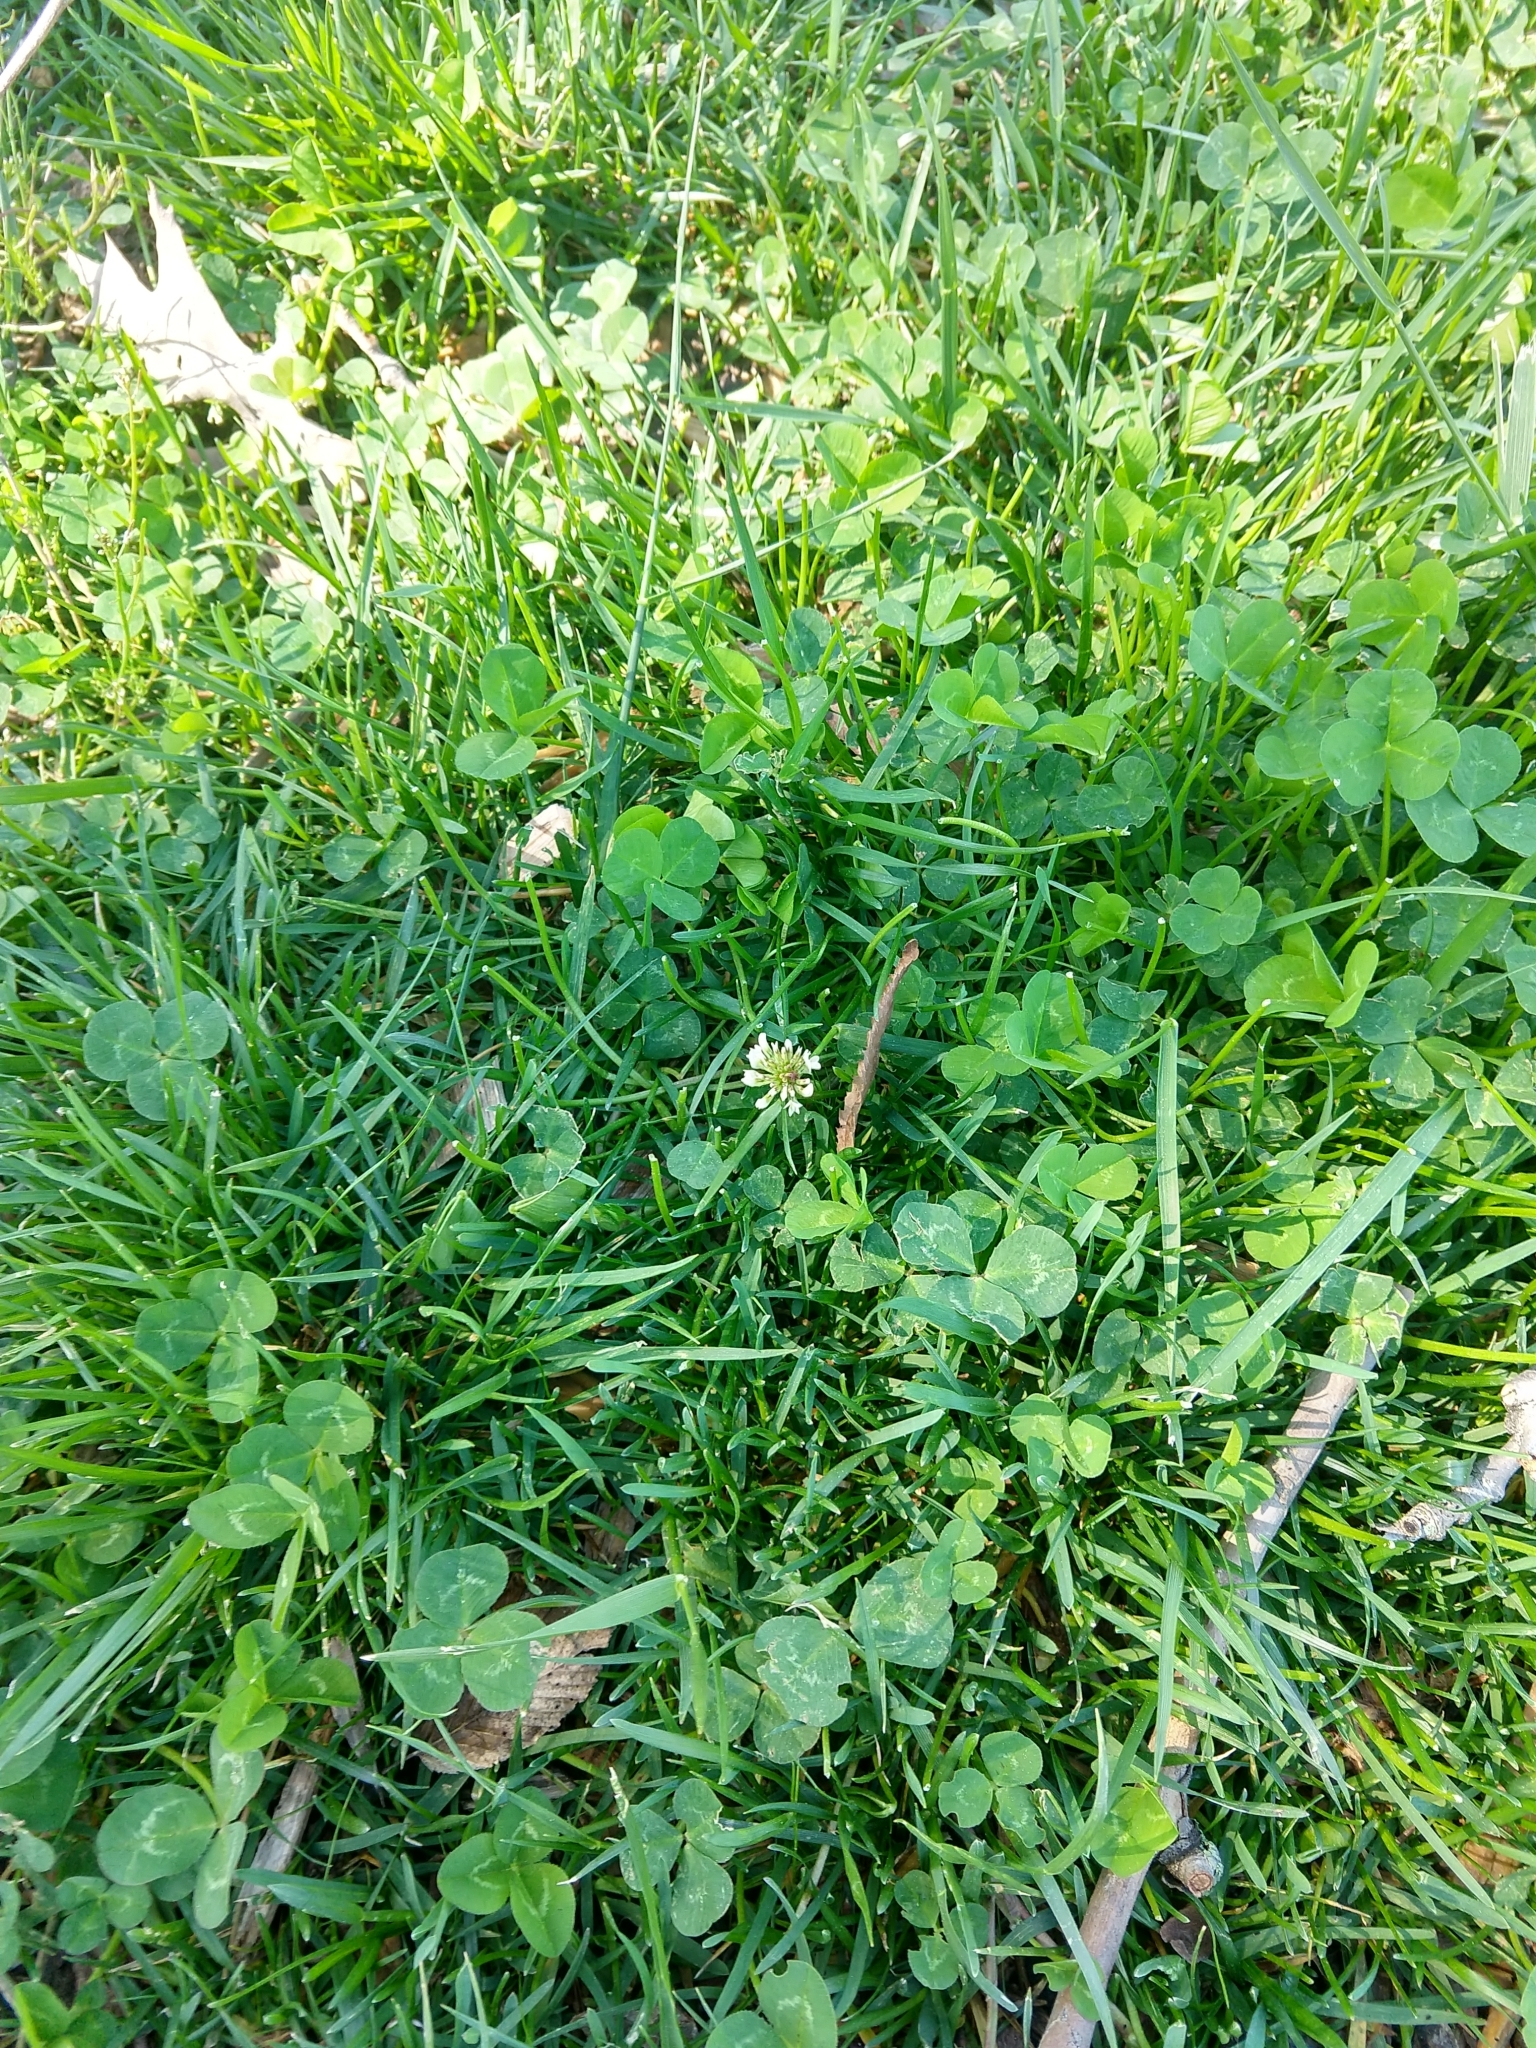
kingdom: Plantae
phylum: Tracheophyta
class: Magnoliopsida
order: Fabales
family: Fabaceae
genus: Trifolium
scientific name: Trifolium repens
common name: White clover
